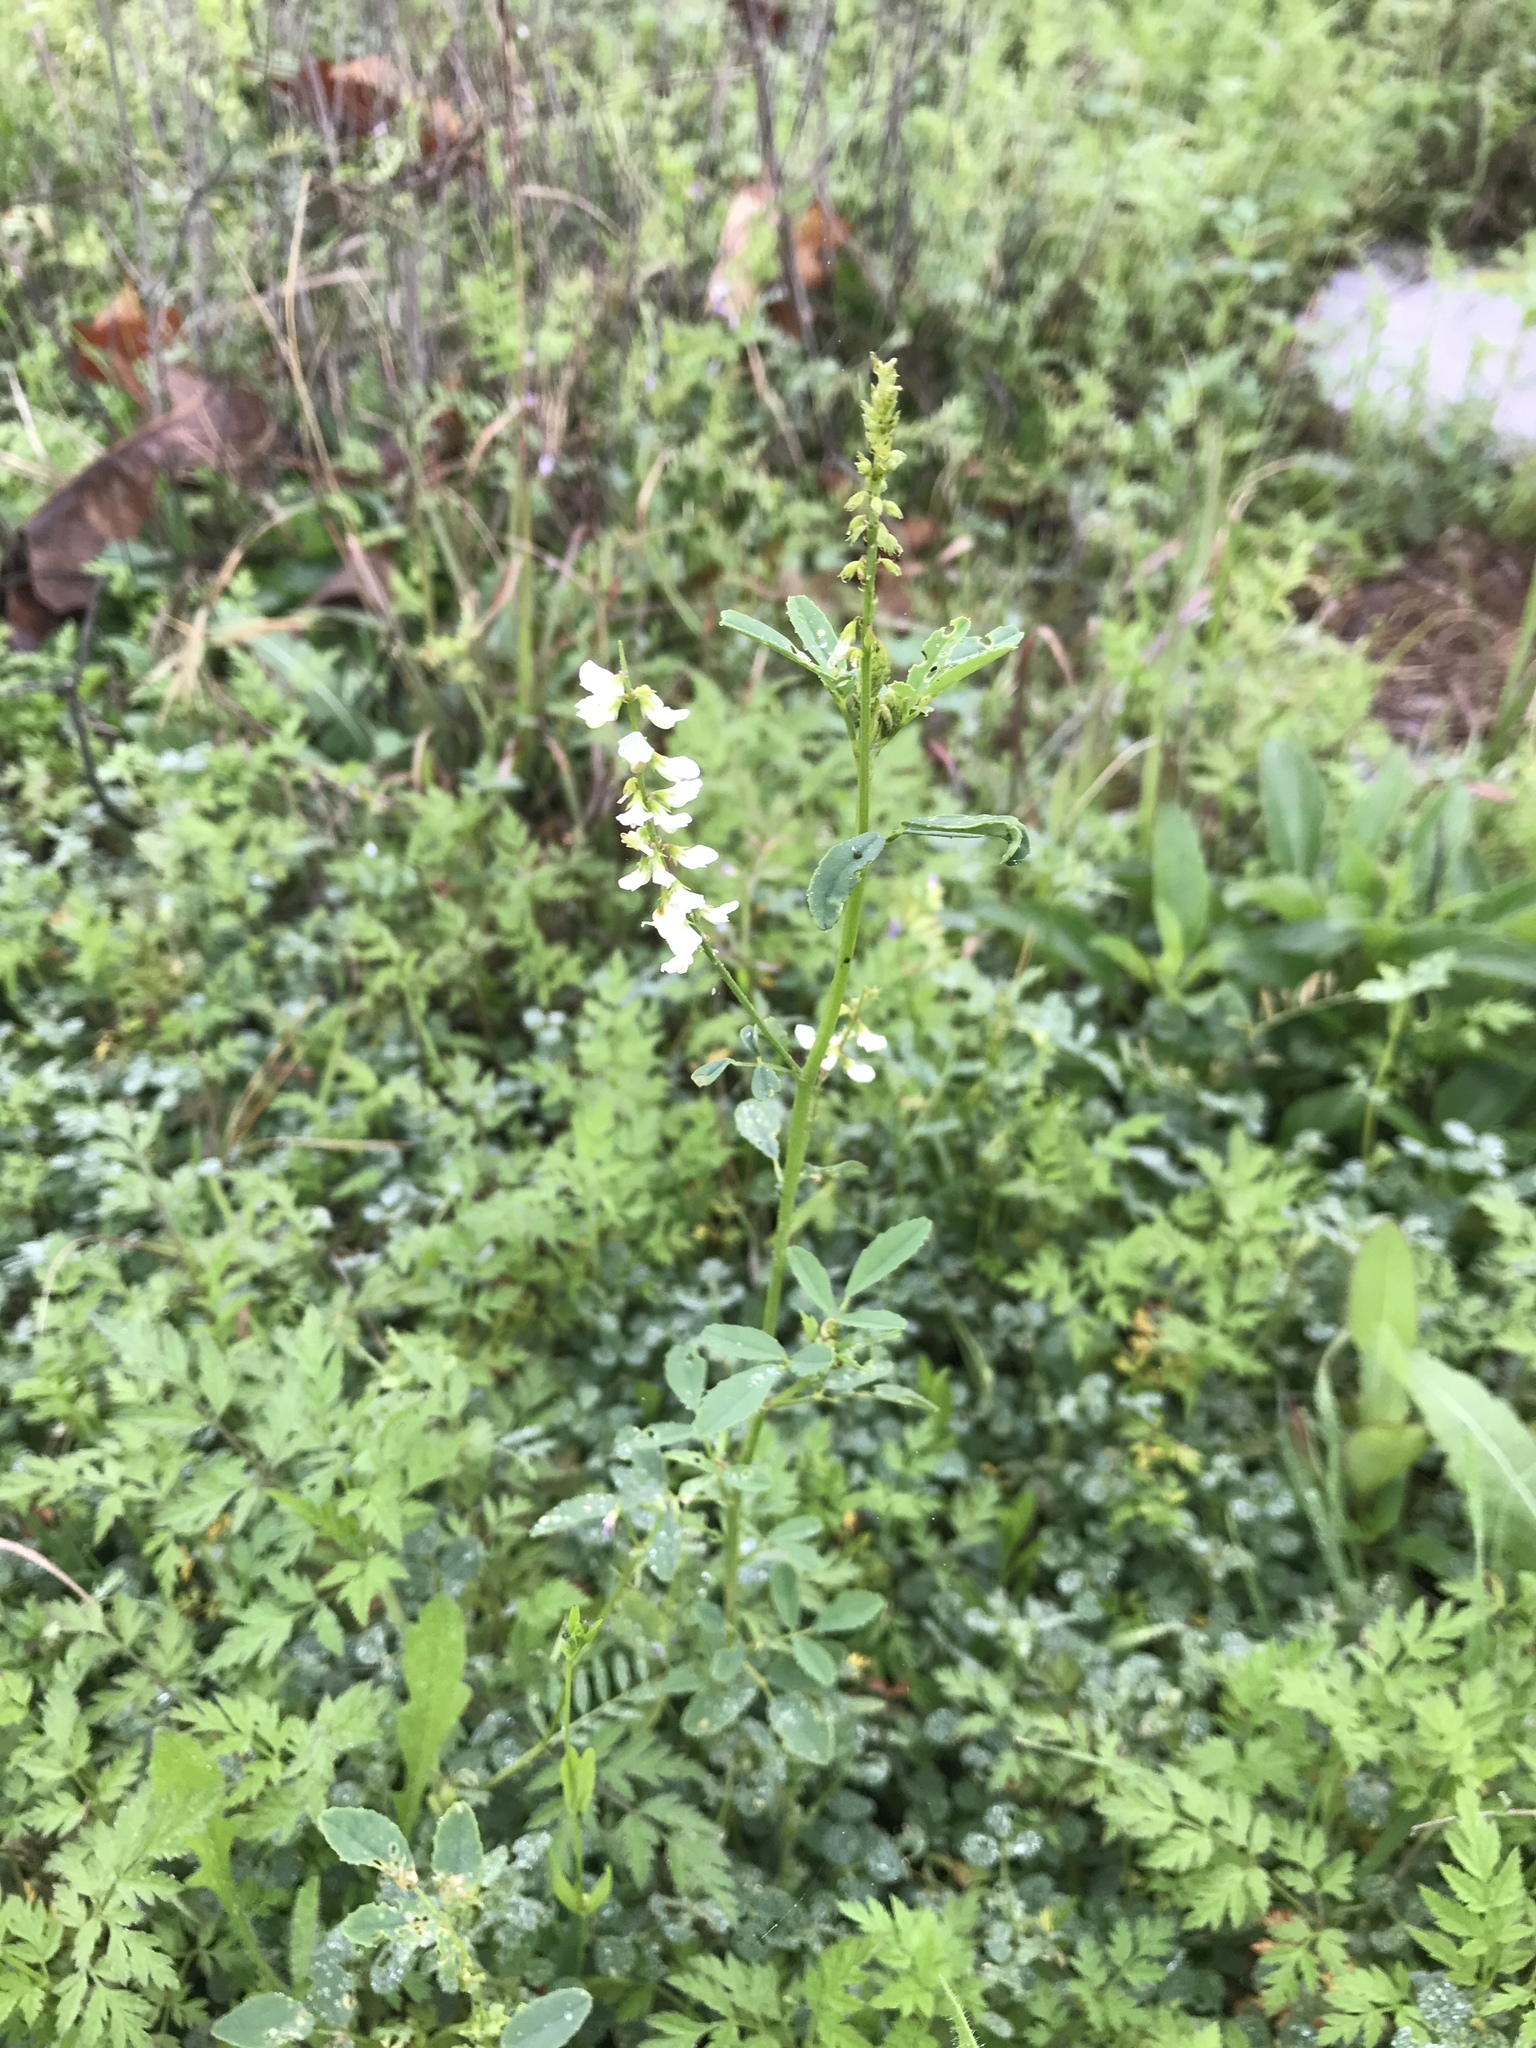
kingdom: Plantae
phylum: Tracheophyta
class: Magnoliopsida
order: Fabales
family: Fabaceae
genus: Melilotus
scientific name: Melilotus albus
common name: White melilot
